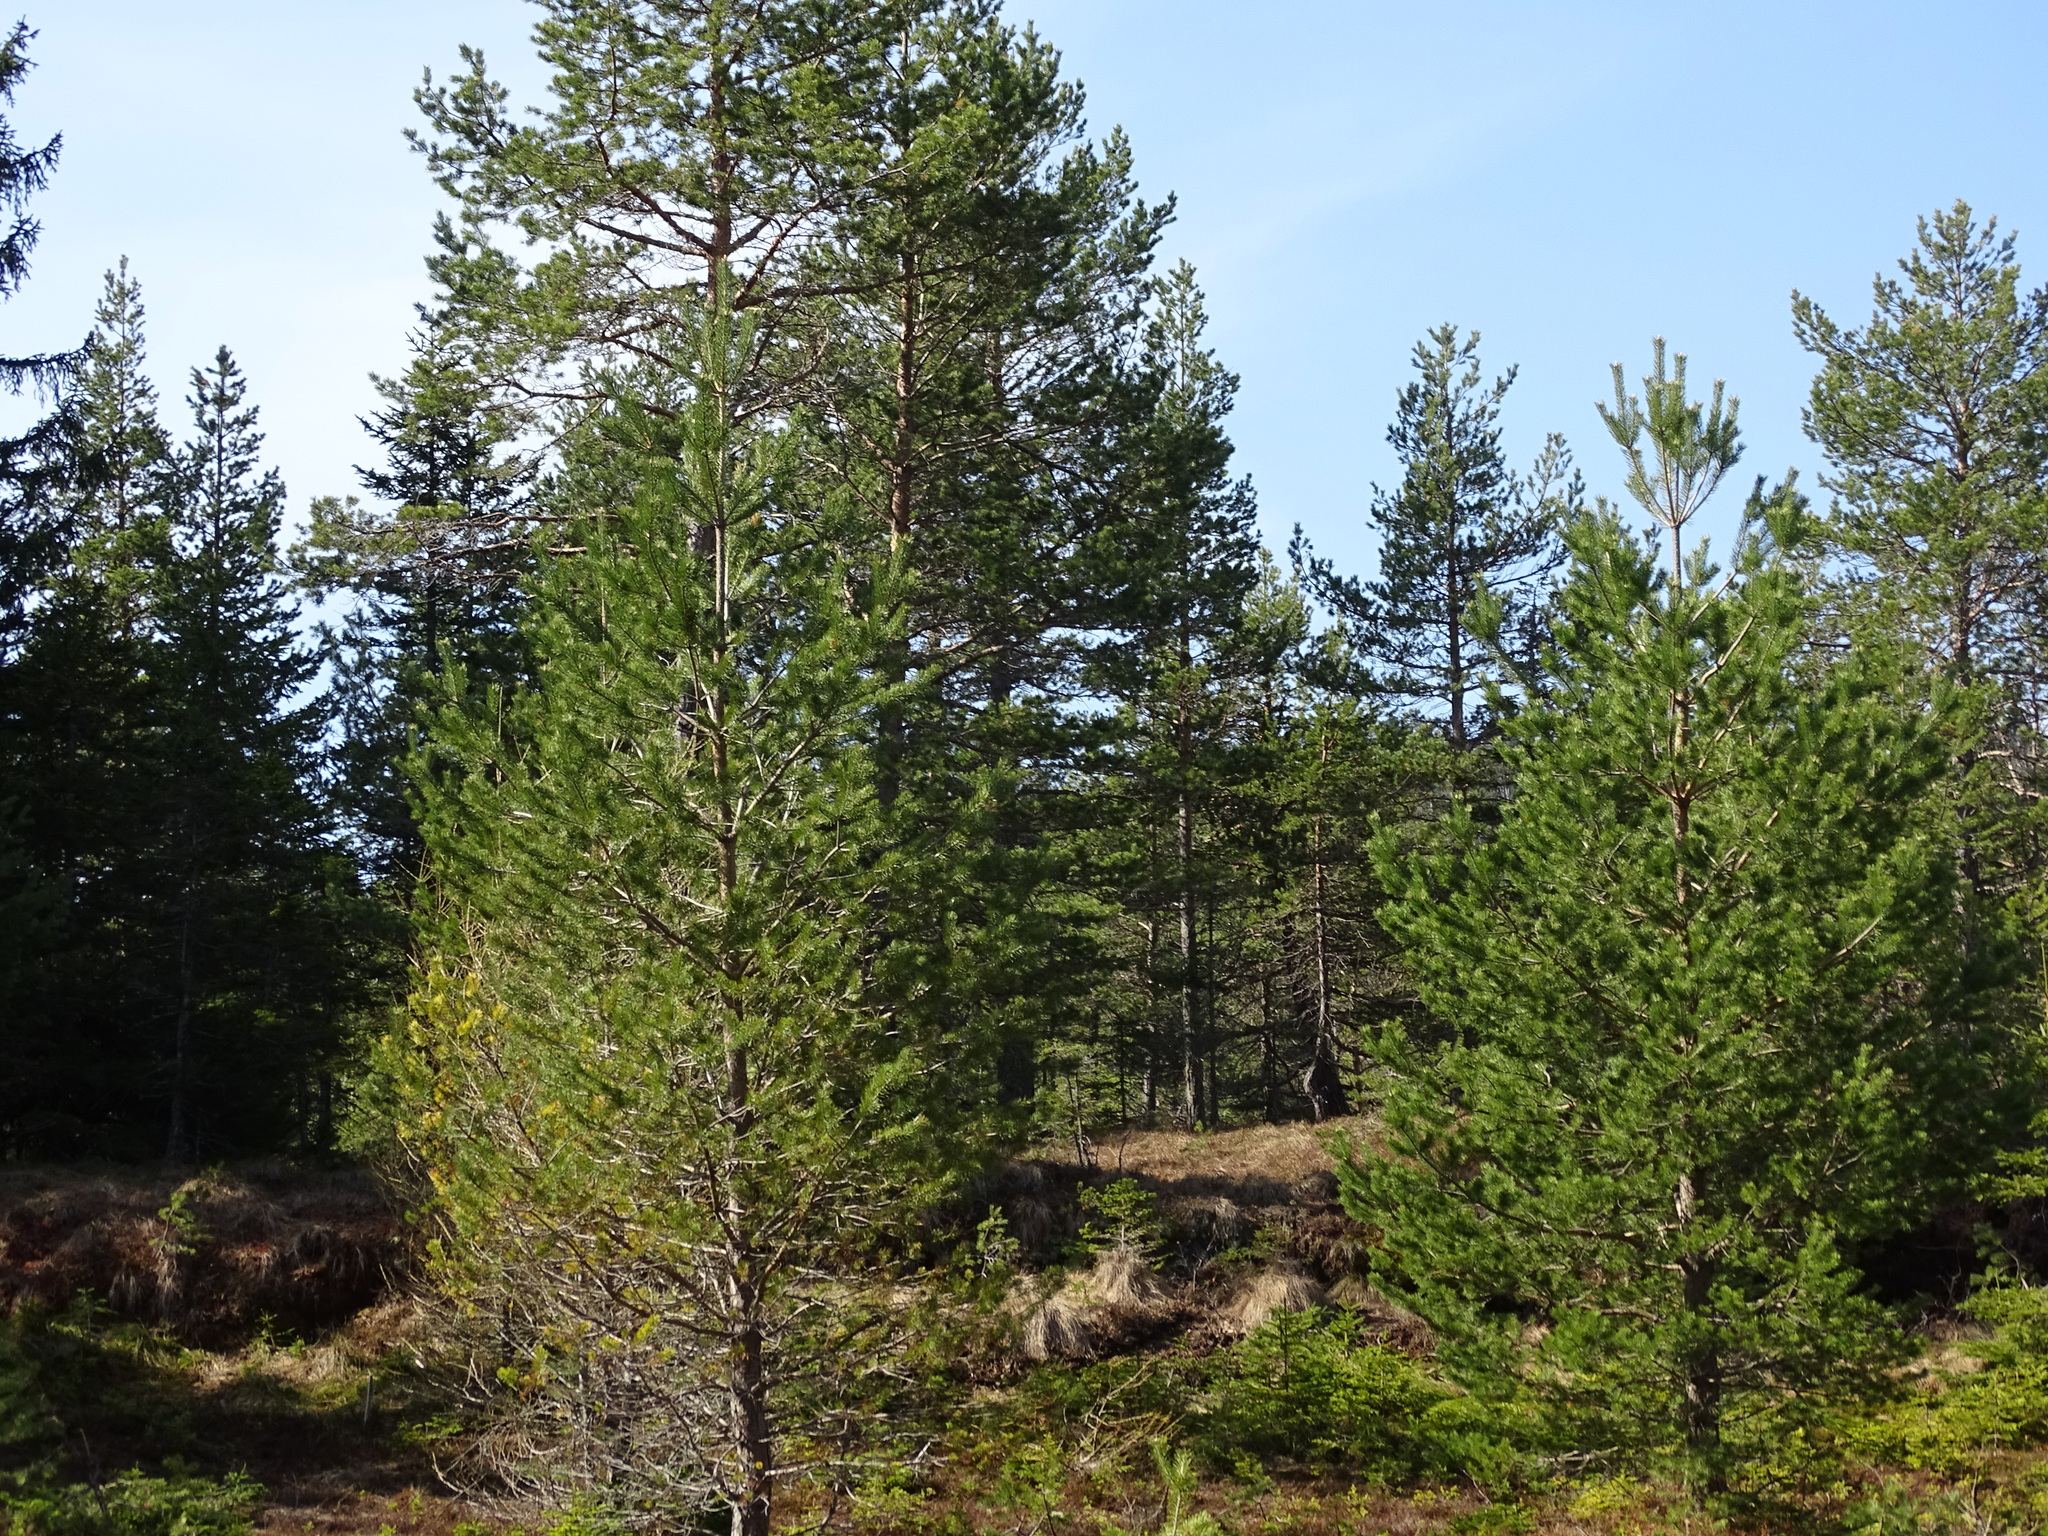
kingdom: Plantae
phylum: Tracheophyta
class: Pinopsida
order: Pinales
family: Pinaceae
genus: Pinus
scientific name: Pinus sylvestris
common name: Scots pine
